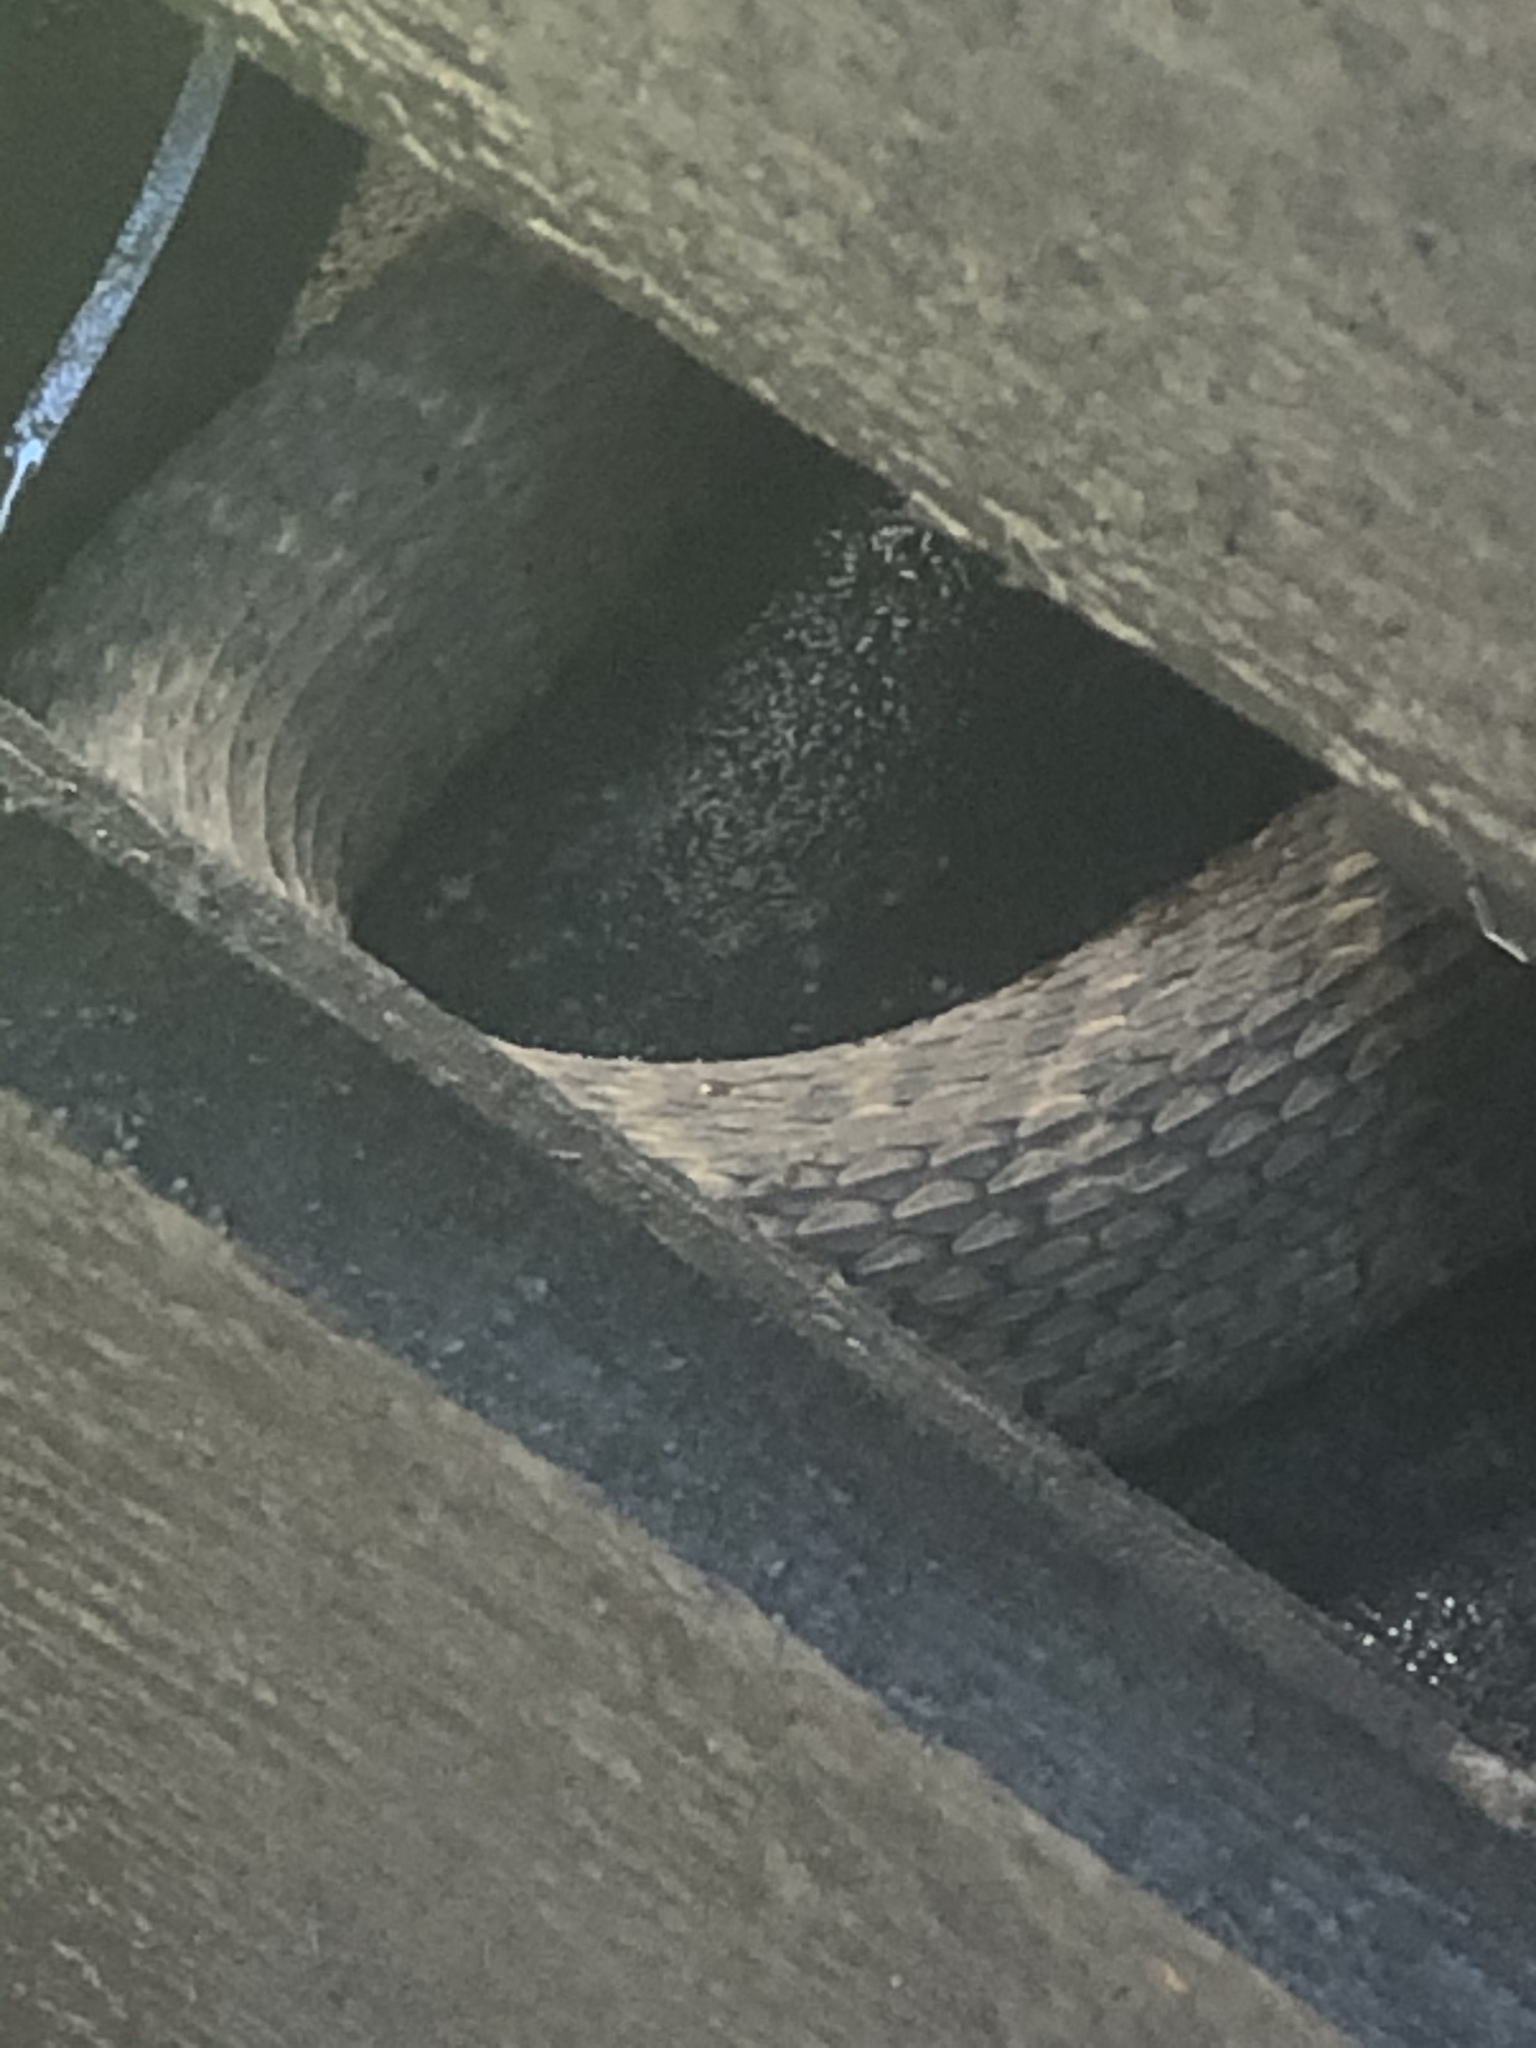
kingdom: Animalia
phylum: Chordata
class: Squamata
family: Colubridae
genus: Nerodia
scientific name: Nerodia sipedon
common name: Northern water snake
